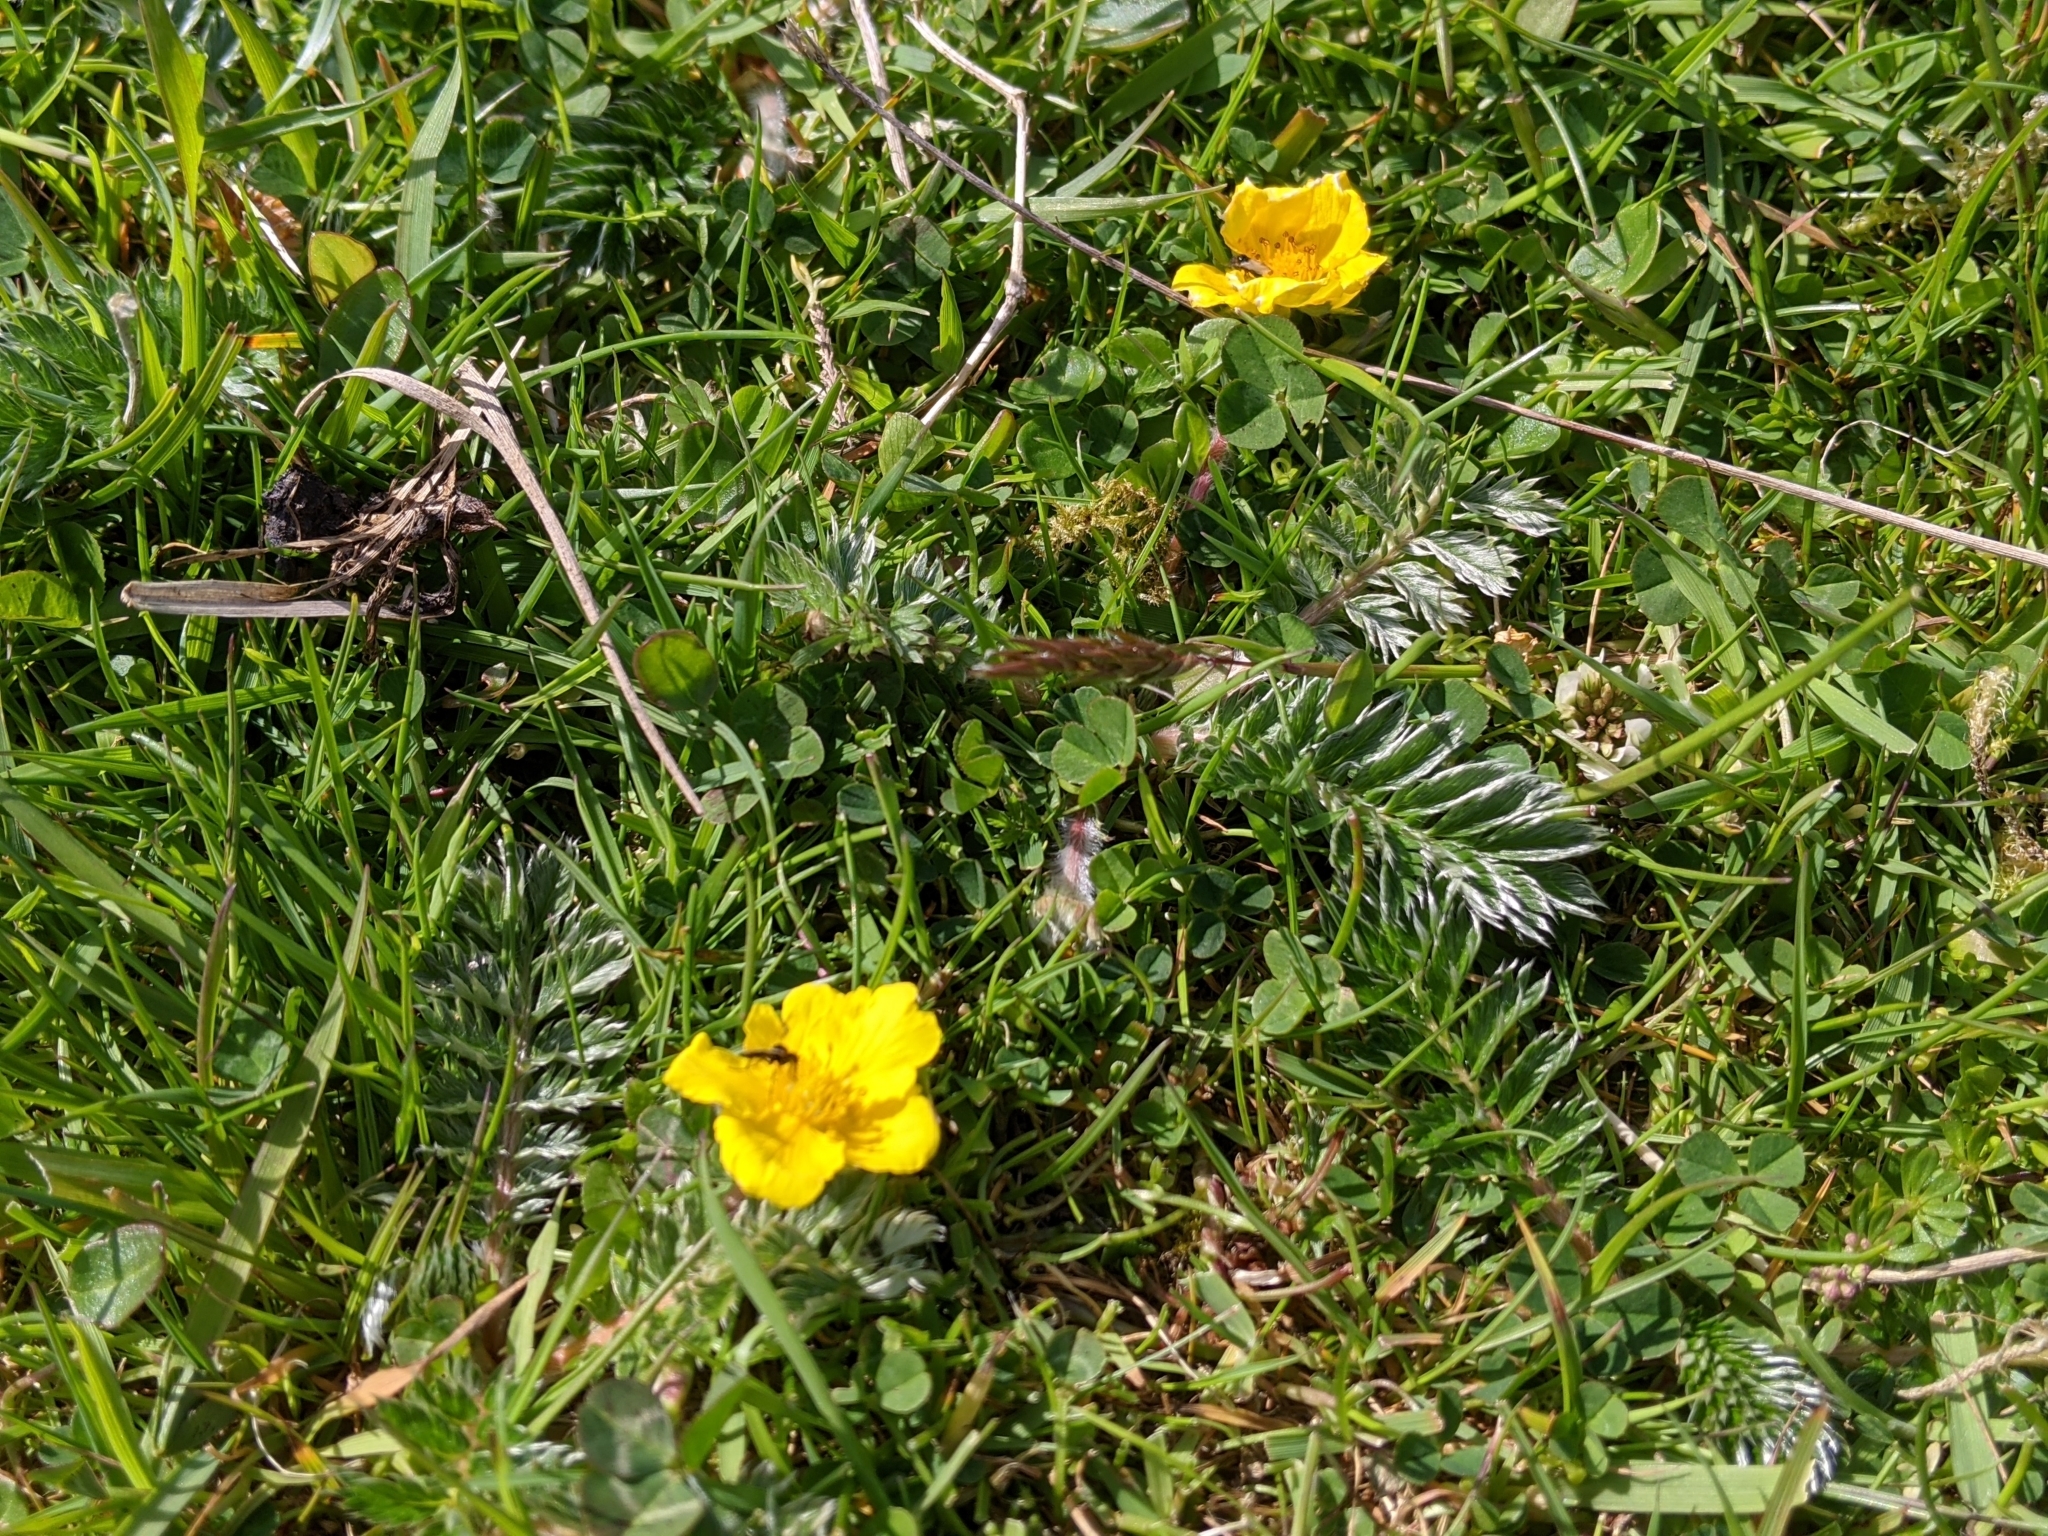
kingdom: Plantae
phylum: Tracheophyta
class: Magnoliopsida
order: Rosales
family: Rosaceae
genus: Argentina
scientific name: Argentina anserina
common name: Common silverweed
